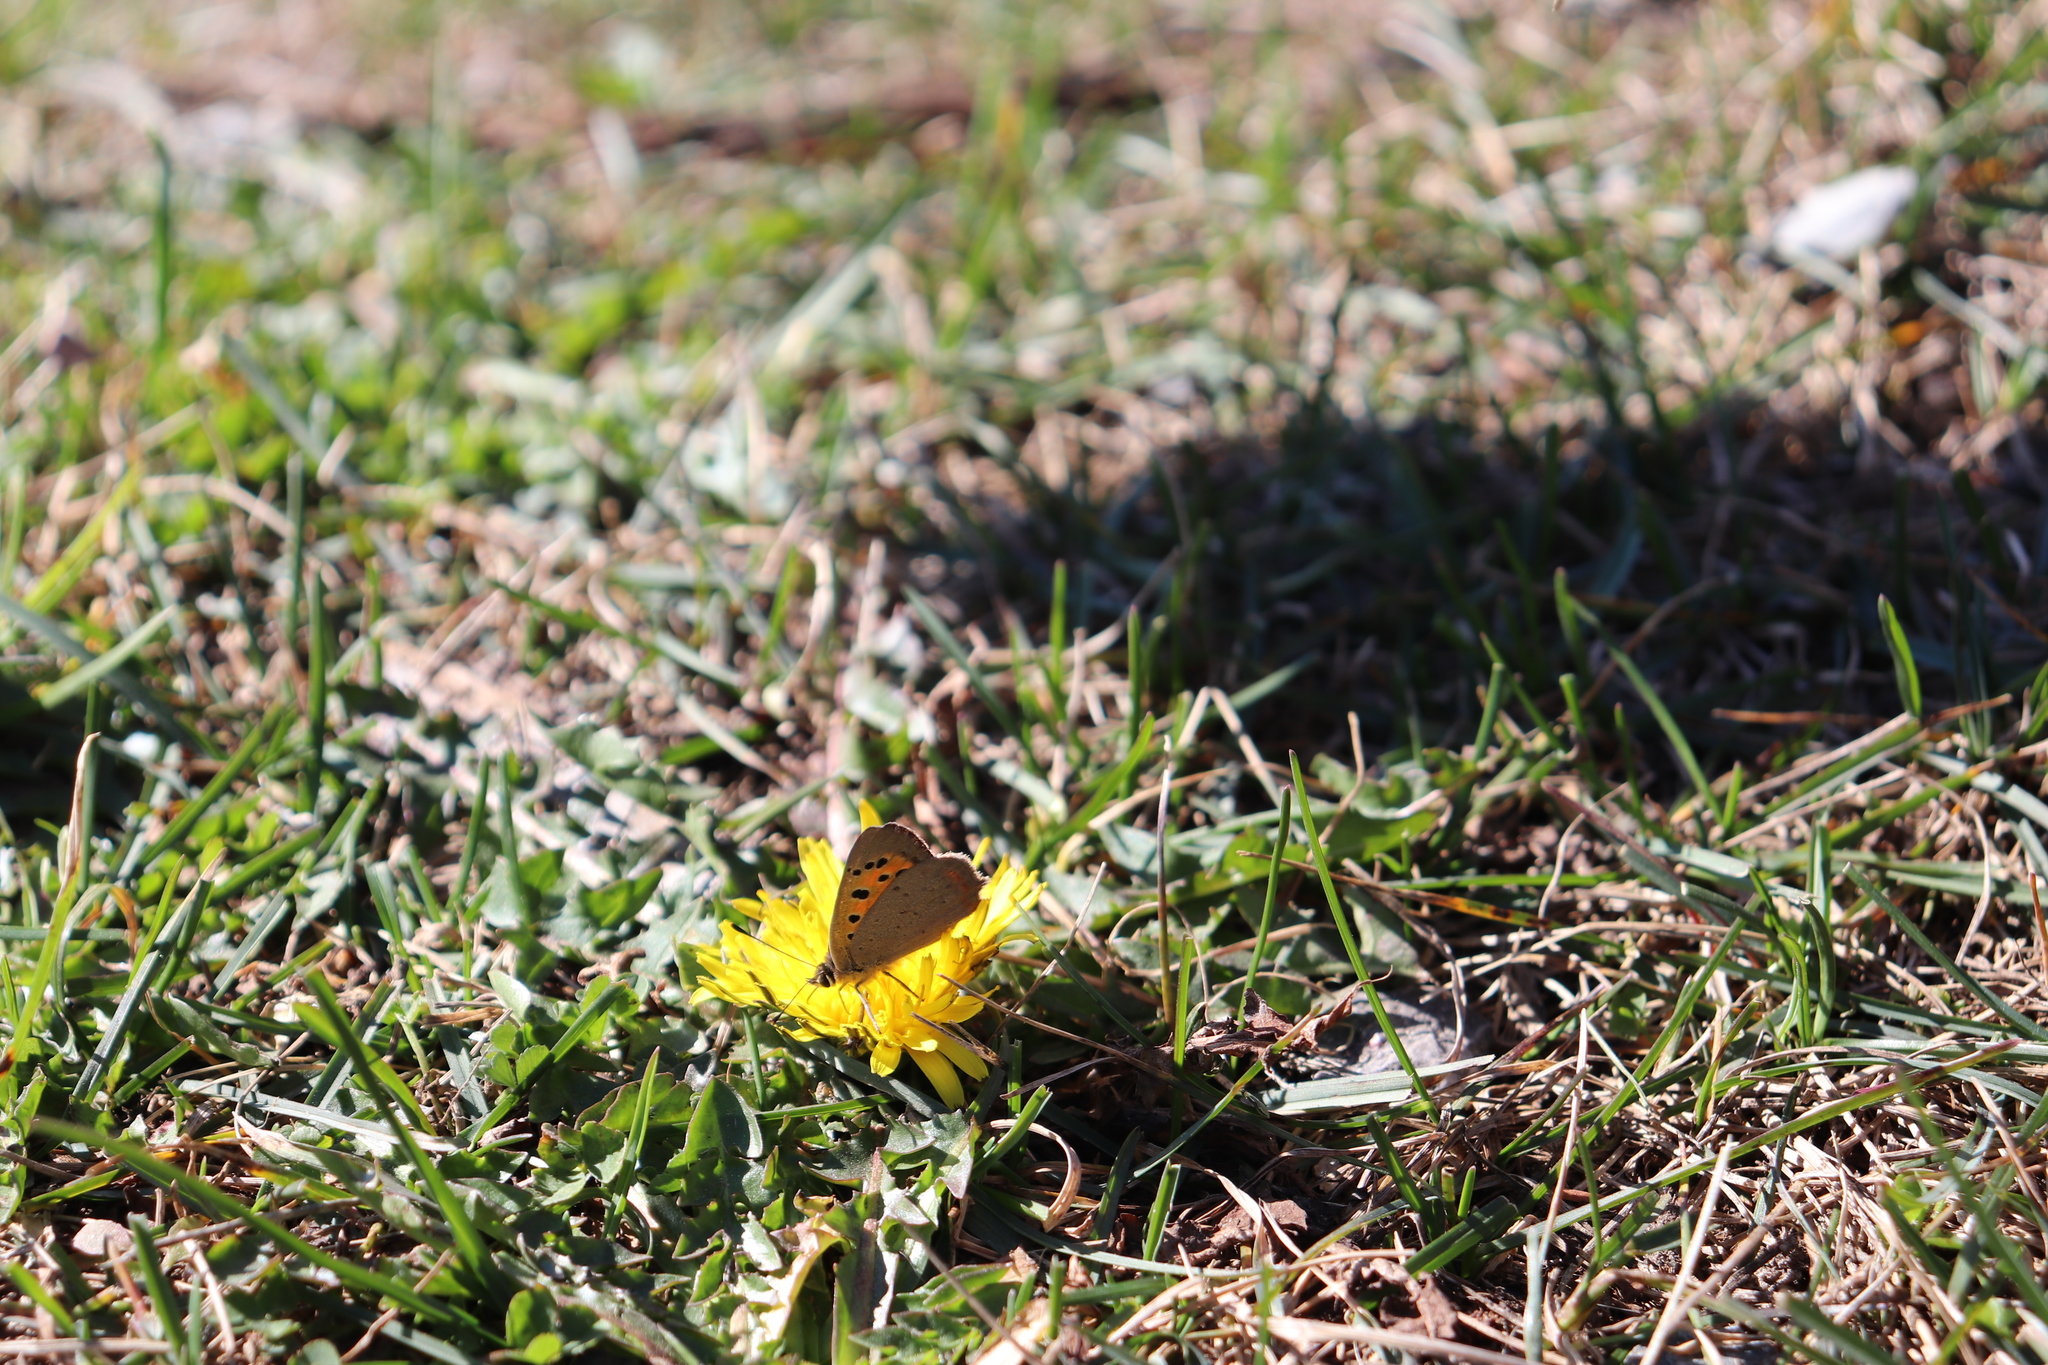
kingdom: Animalia
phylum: Arthropoda
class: Insecta
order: Lepidoptera
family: Lycaenidae
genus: Lycaena
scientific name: Lycaena phlaeas
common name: Small copper
